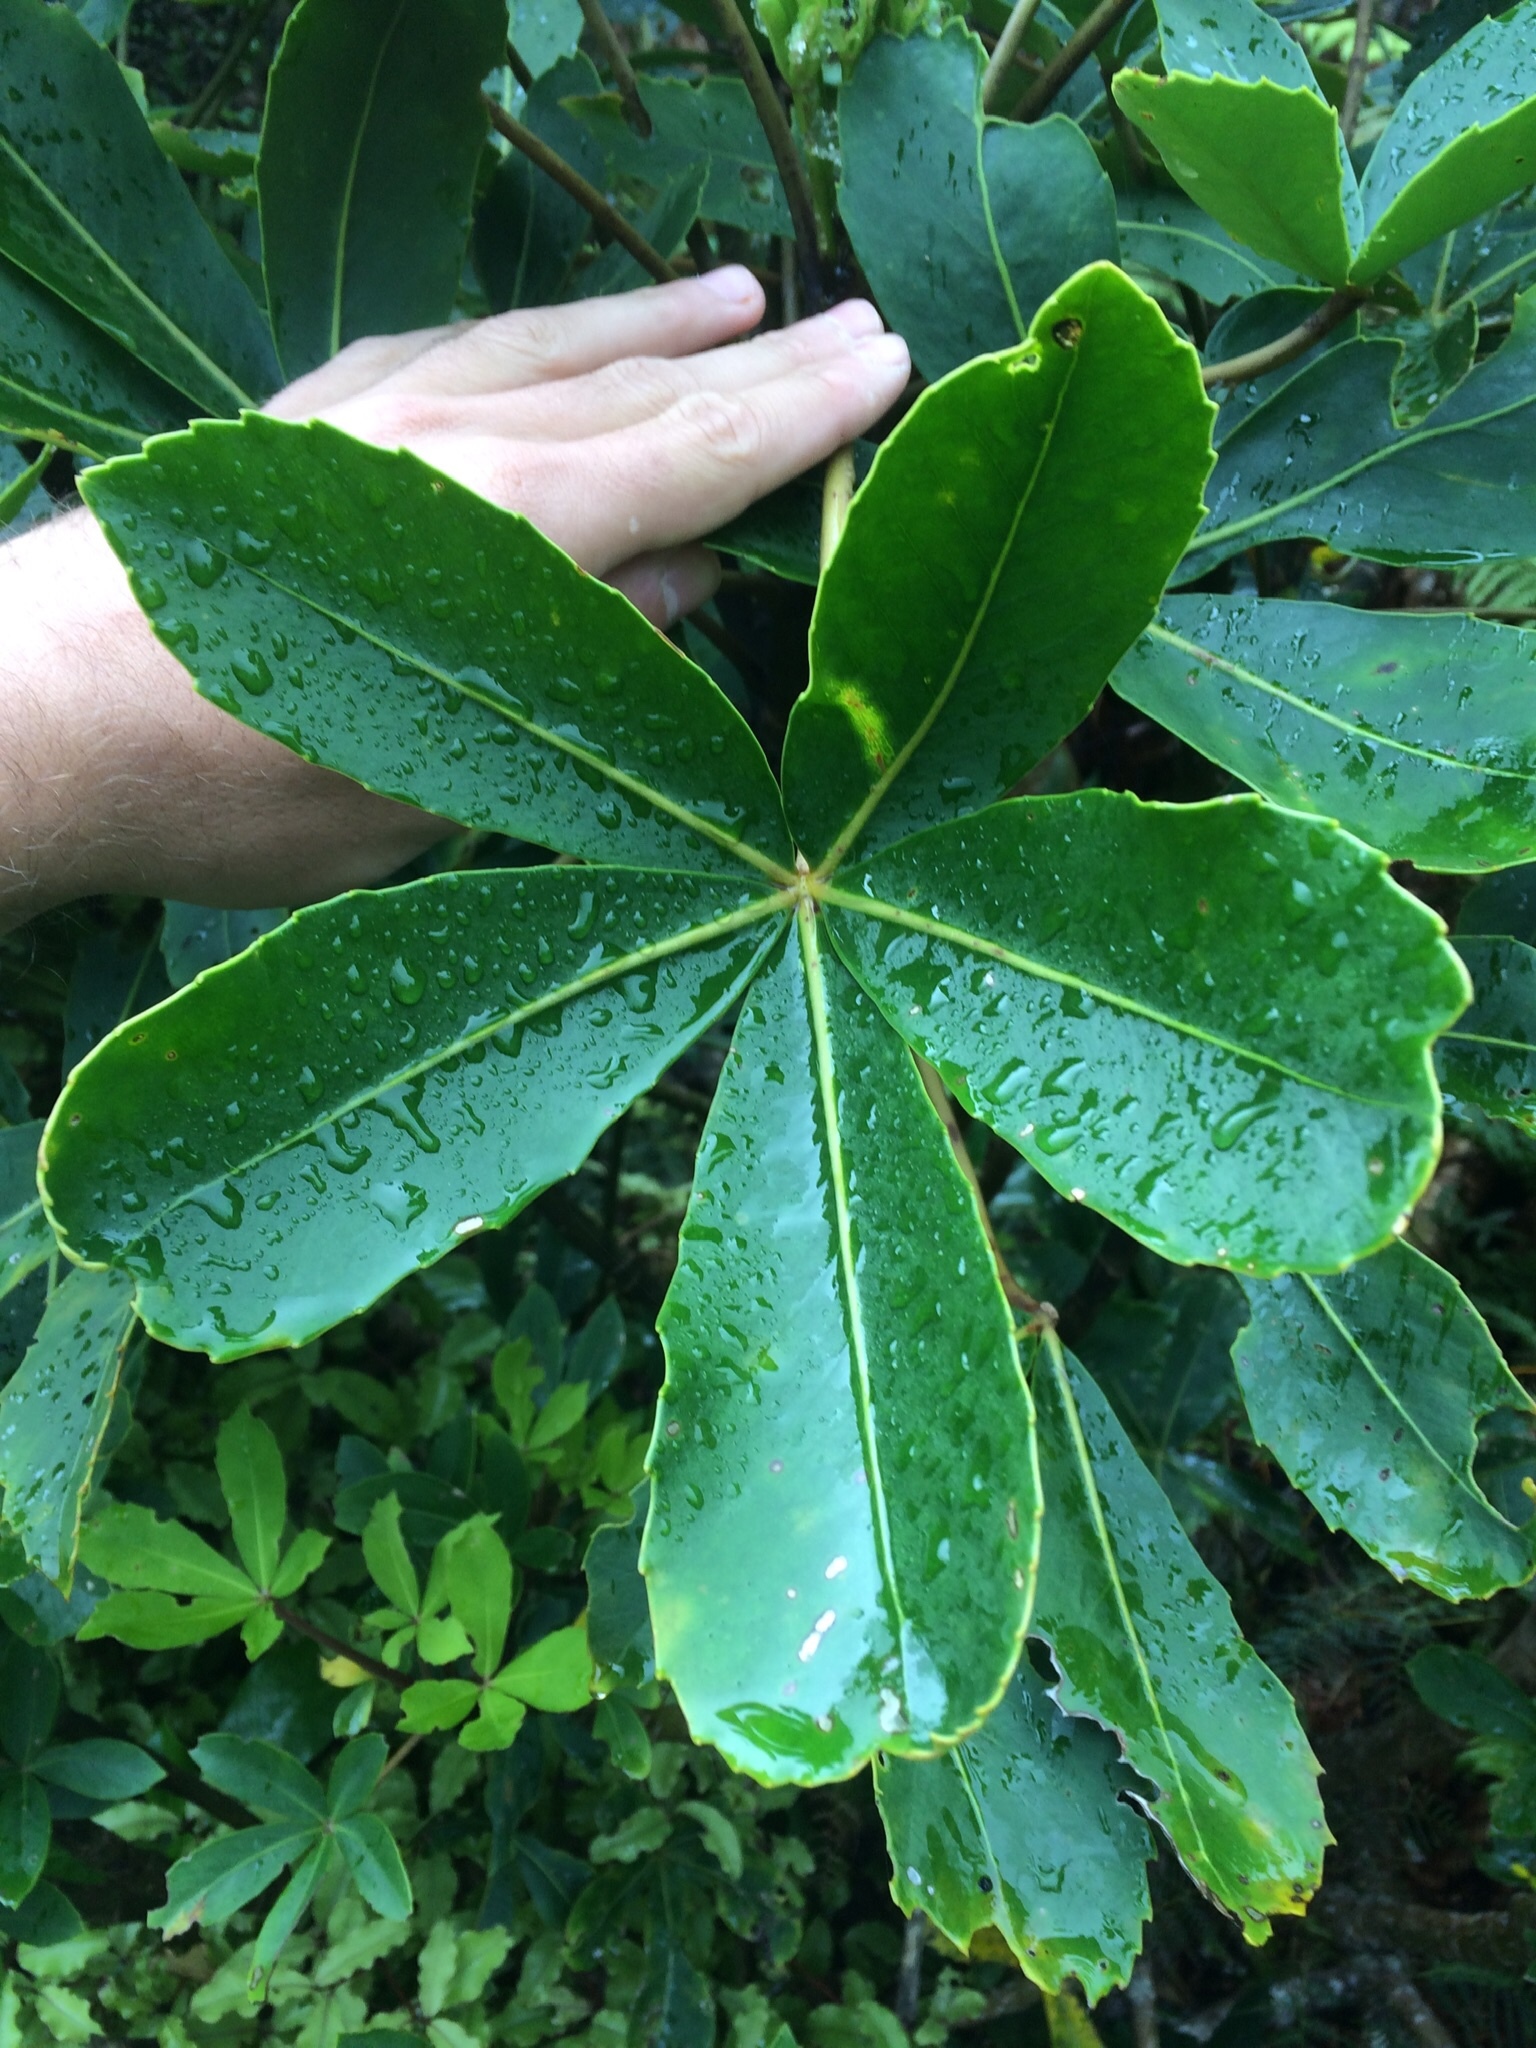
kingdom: Plantae
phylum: Tracheophyta
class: Magnoliopsida
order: Apiales
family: Araliaceae
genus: Neopanax
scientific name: Neopanax colensoi
